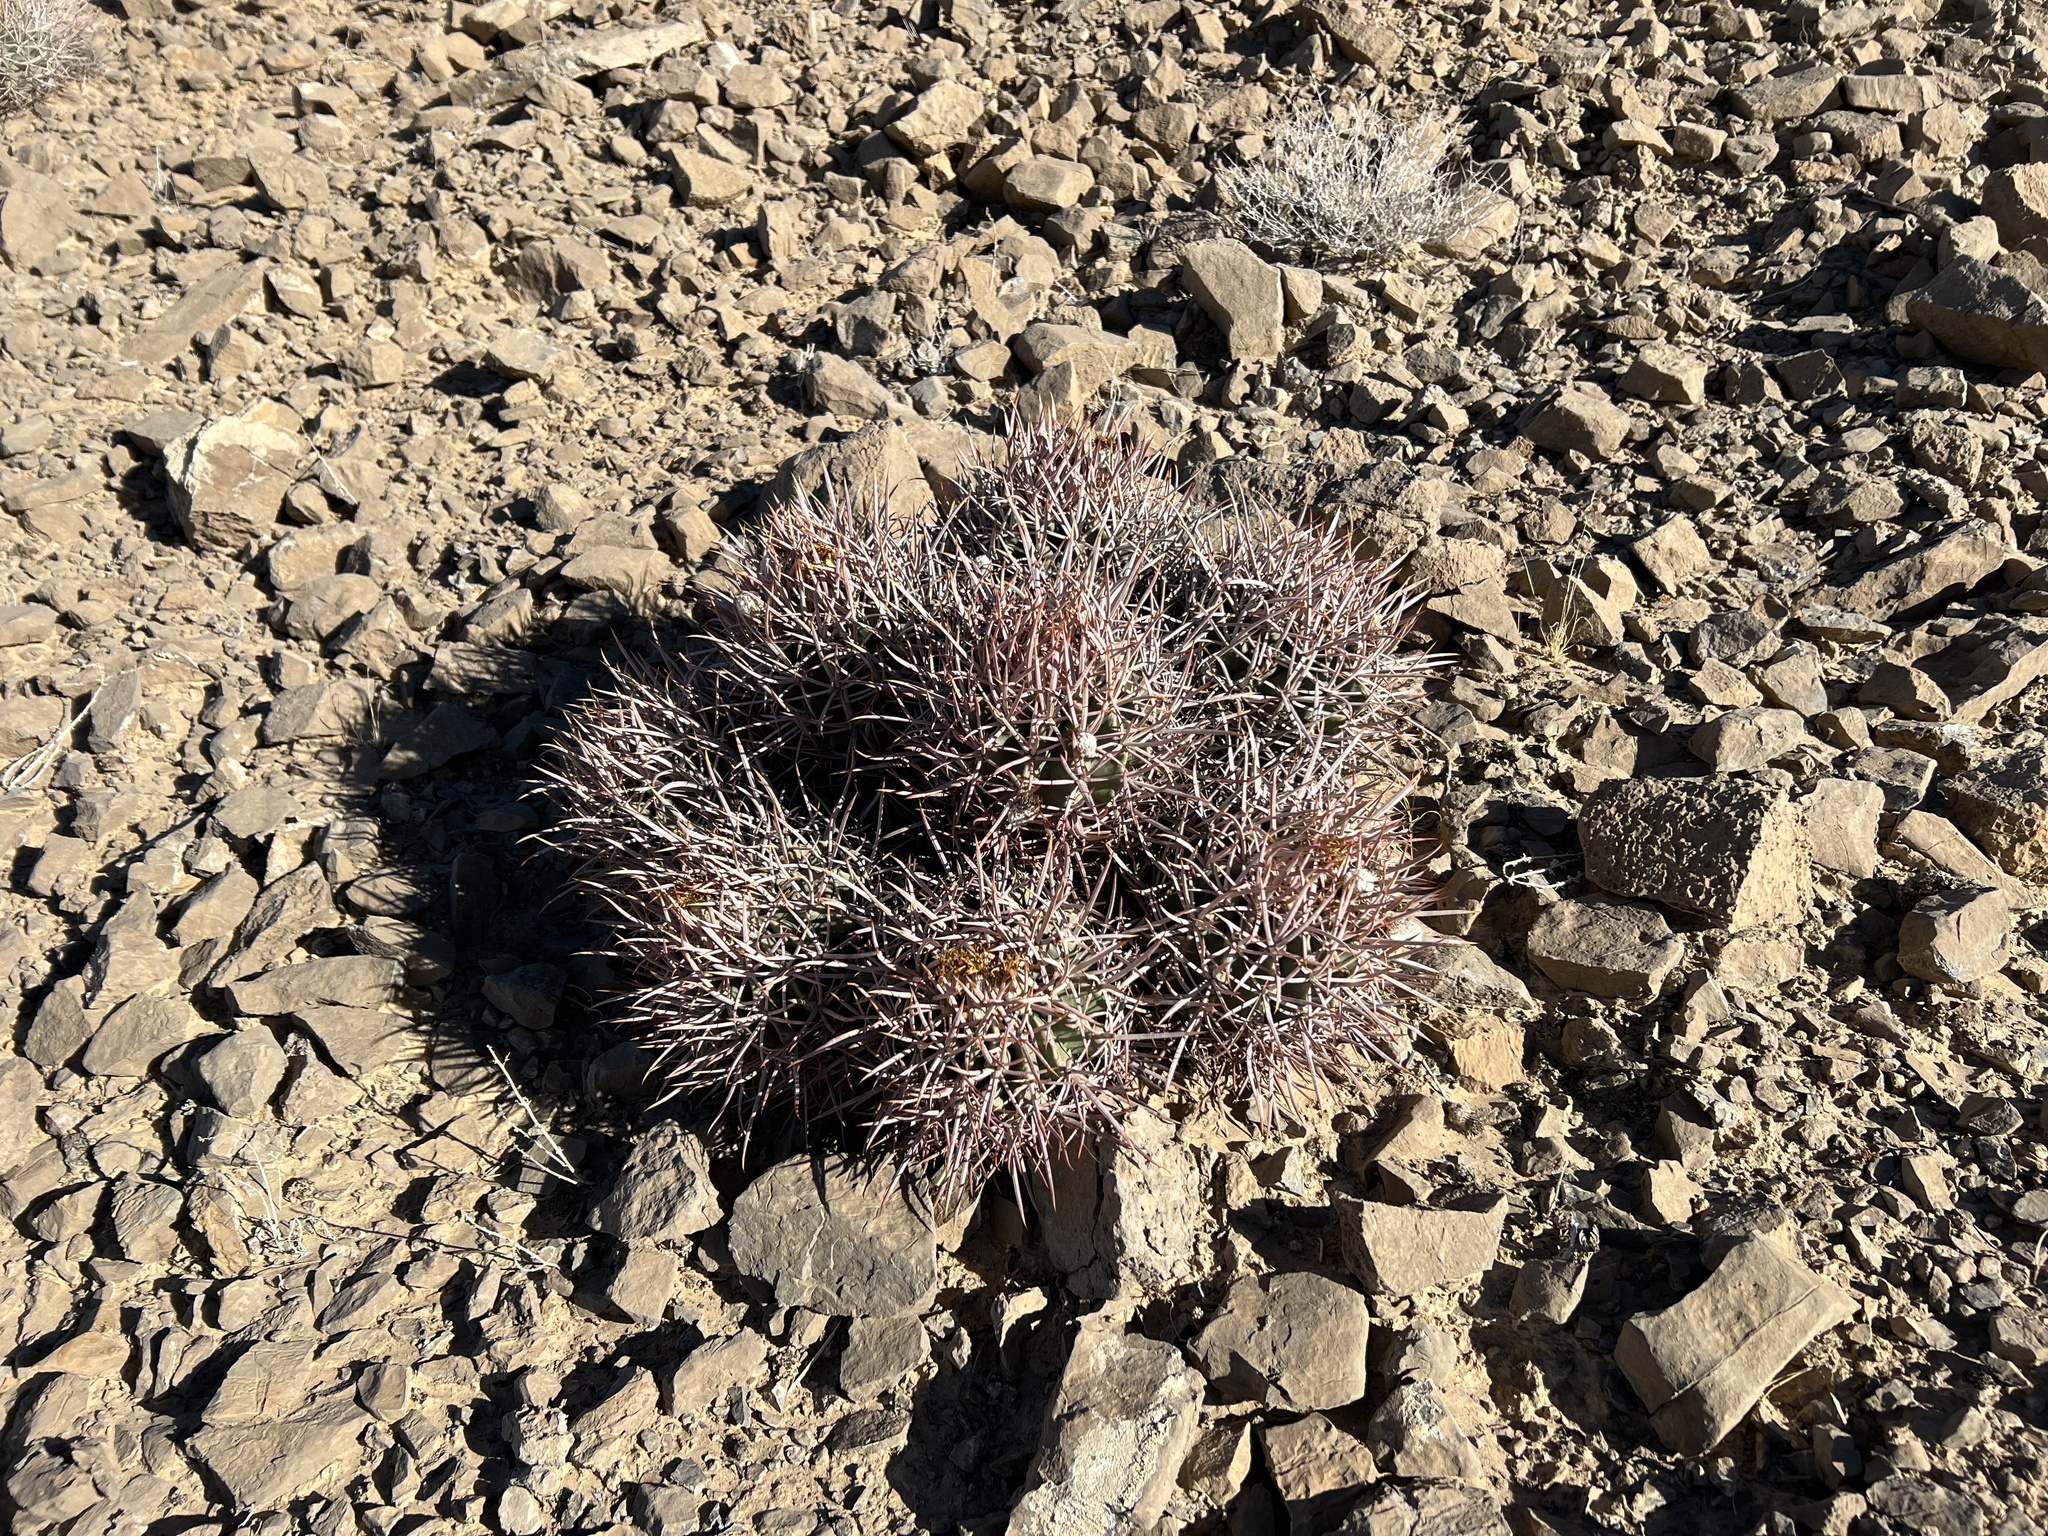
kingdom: Plantae
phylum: Tracheophyta
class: Magnoliopsida
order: Caryophyllales
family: Cactaceae
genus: Echinocactus
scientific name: Echinocactus polycephalus
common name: Cottontop cactus
